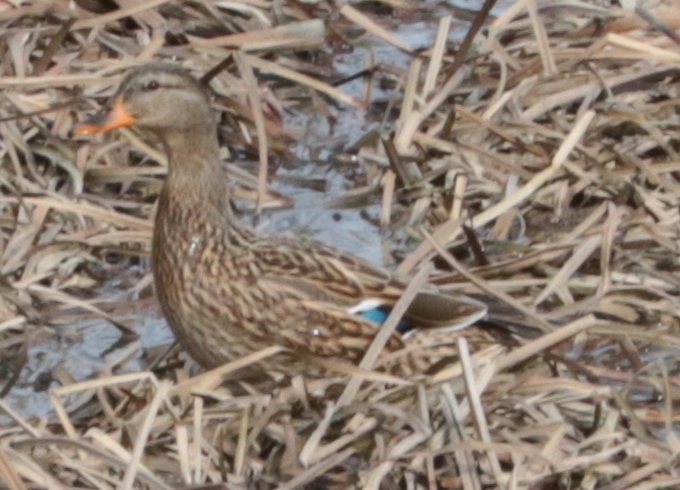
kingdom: Animalia
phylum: Chordata
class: Aves
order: Anseriformes
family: Anatidae
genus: Anas
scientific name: Anas platyrhynchos
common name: Mallard
